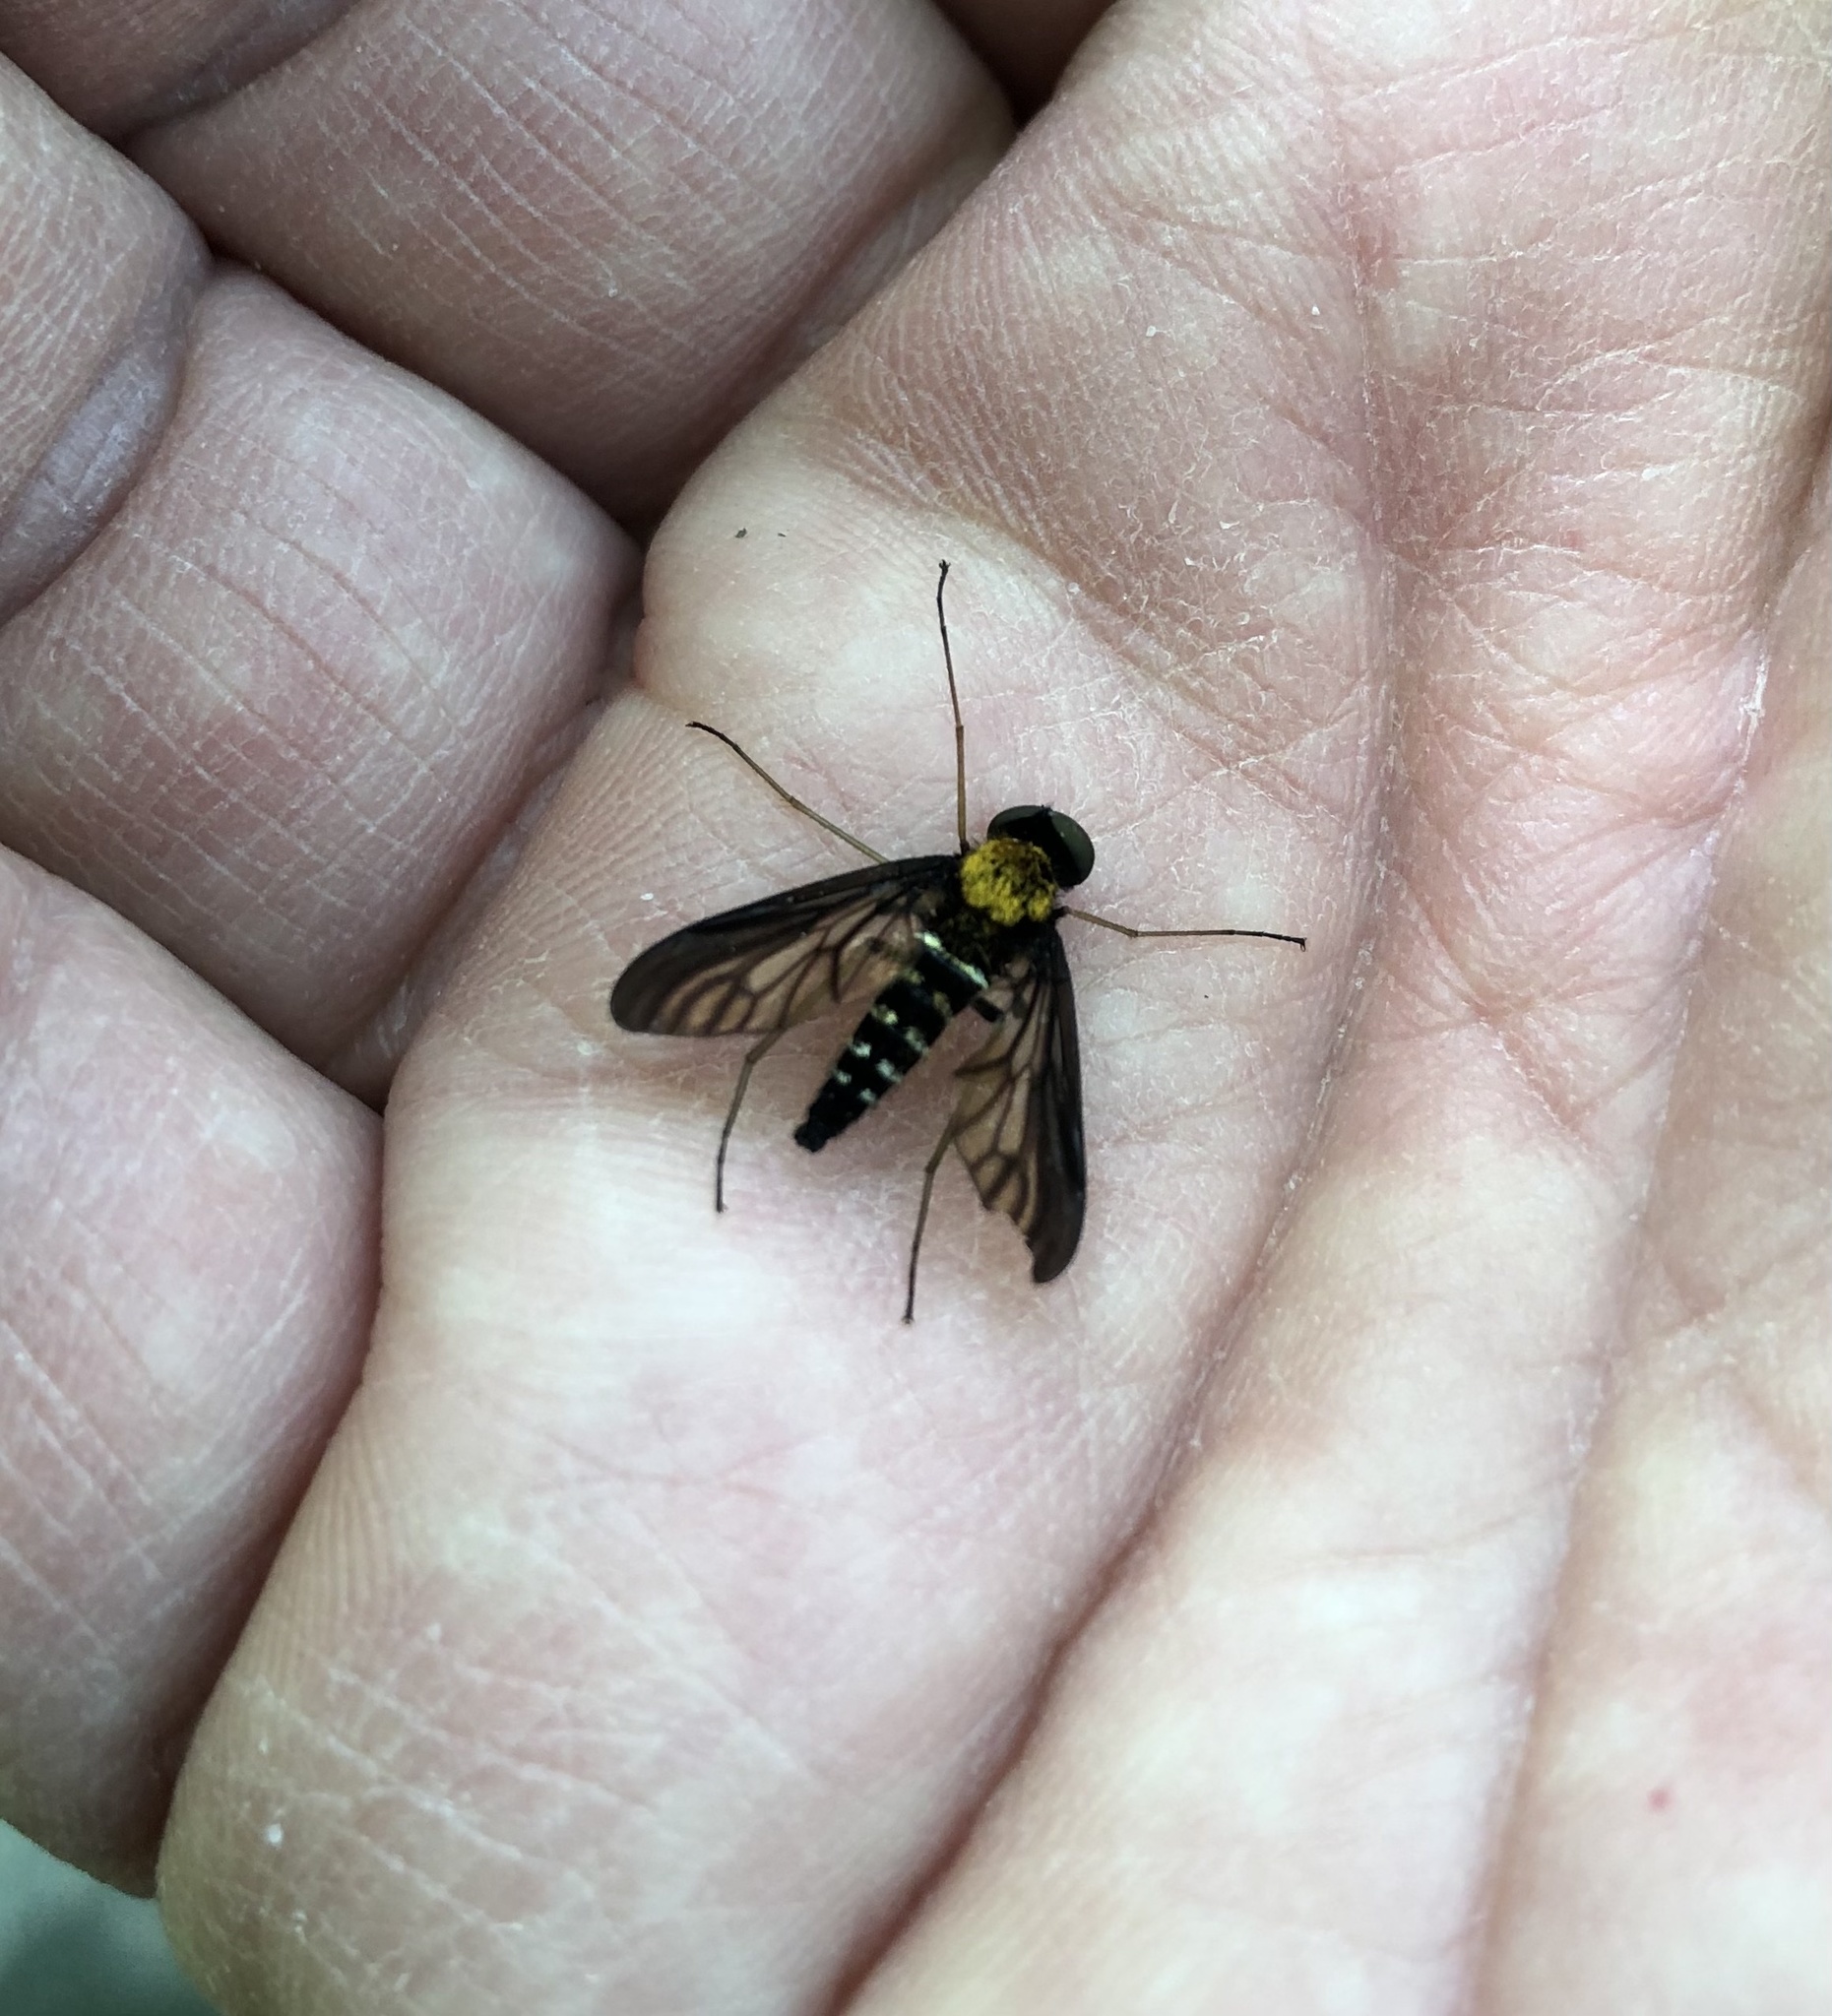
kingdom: Animalia
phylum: Arthropoda
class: Insecta
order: Diptera
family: Rhagionidae
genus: Chrysopilus
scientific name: Chrysopilus thoracicus
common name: Golden-backed snipe fly
